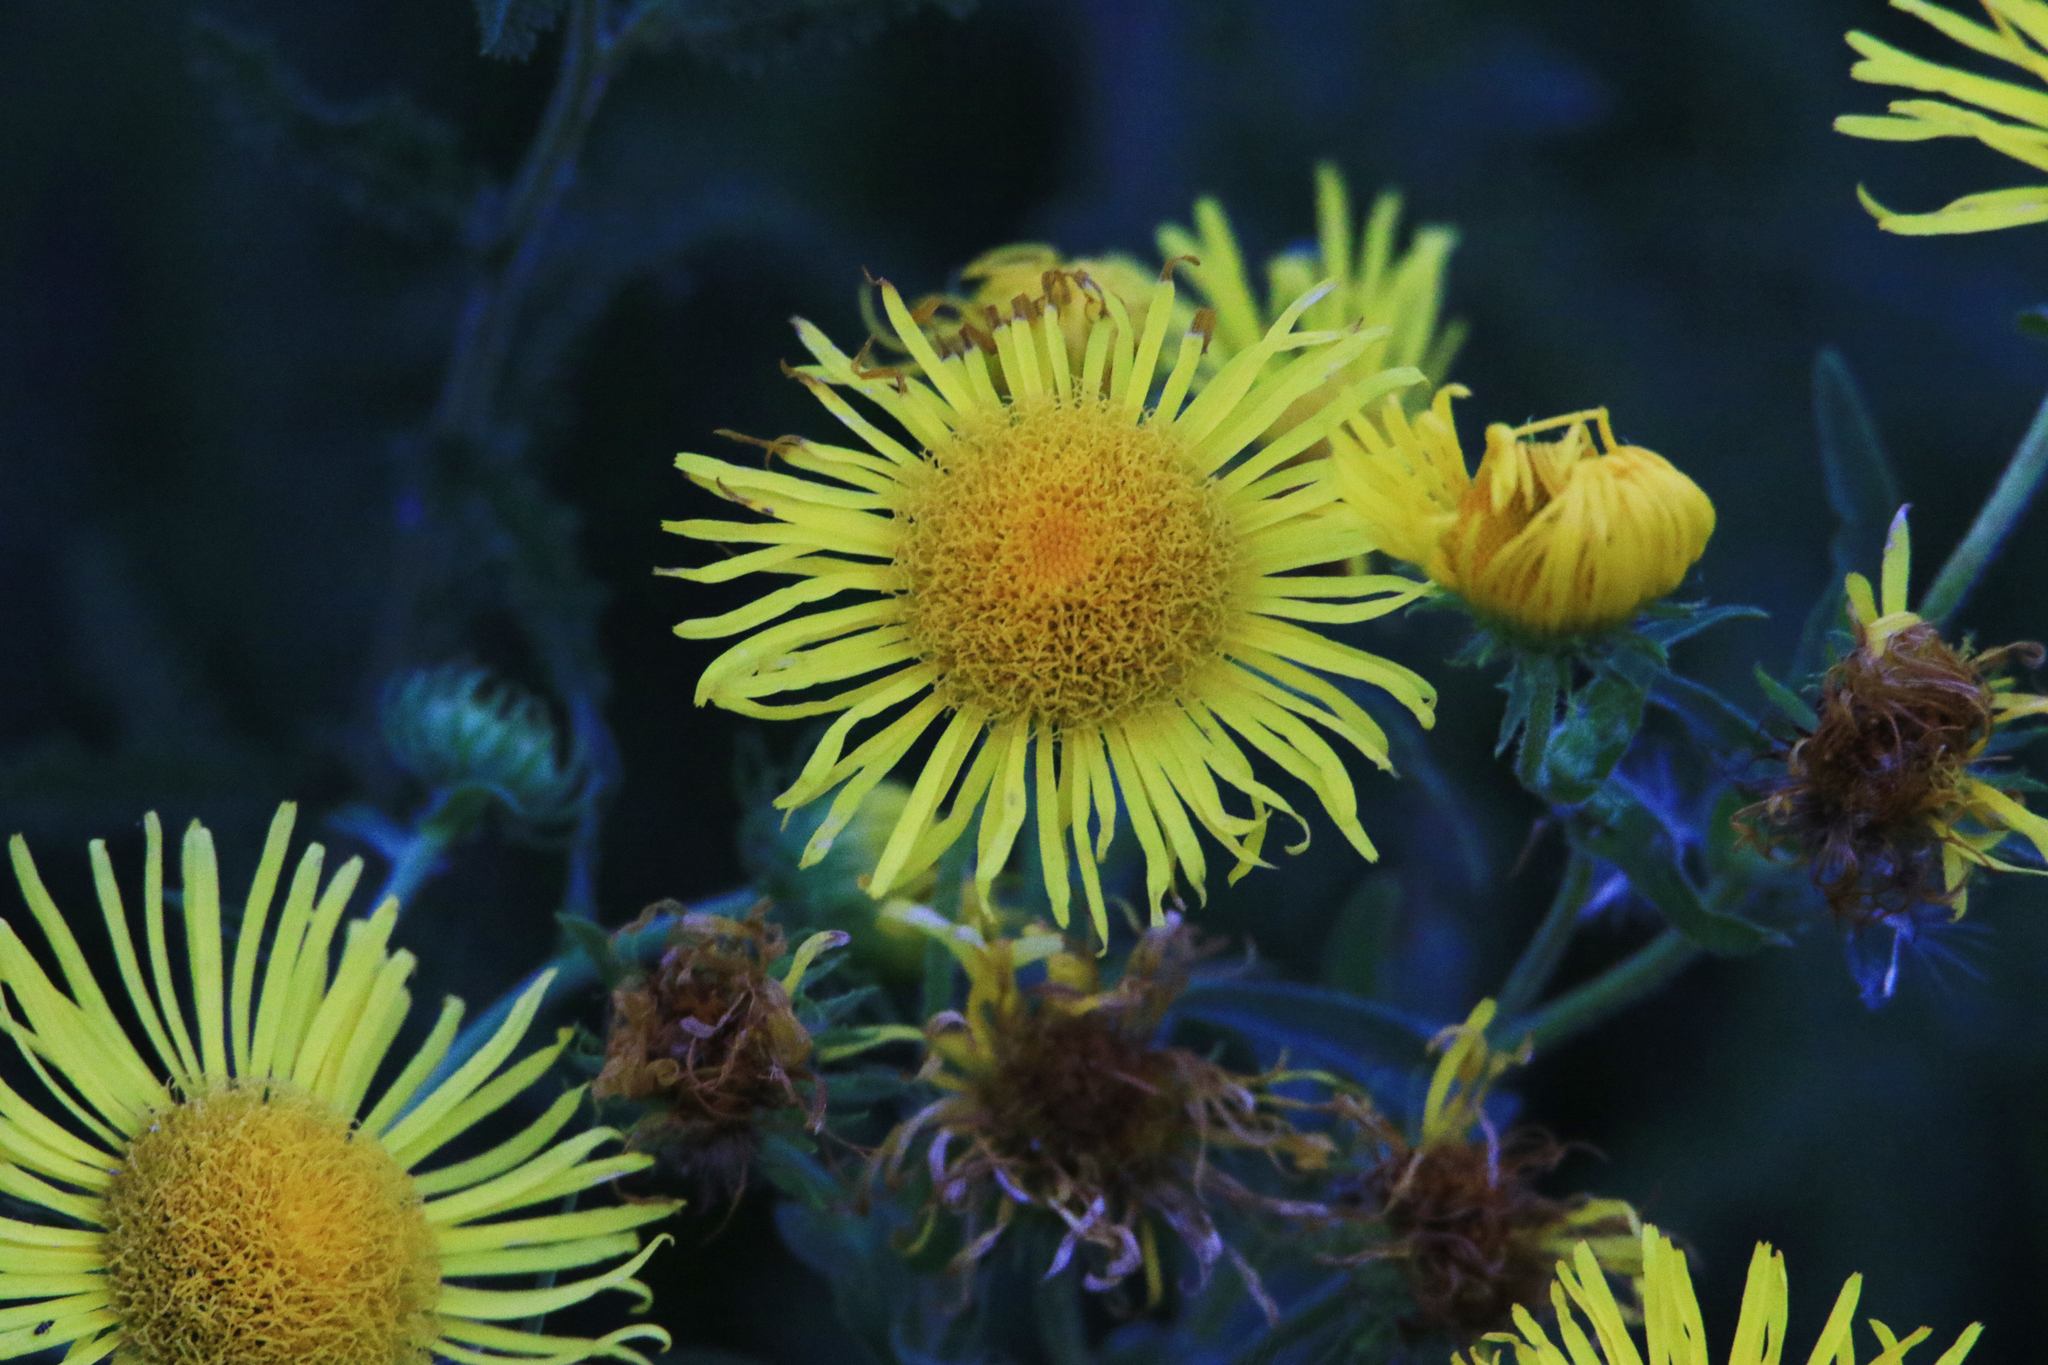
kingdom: Plantae
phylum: Tracheophyta
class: Magnoliopsida
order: Asterales
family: Asteraceae
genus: Pentanema
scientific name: Pentanema britannicum
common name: British elecampane
